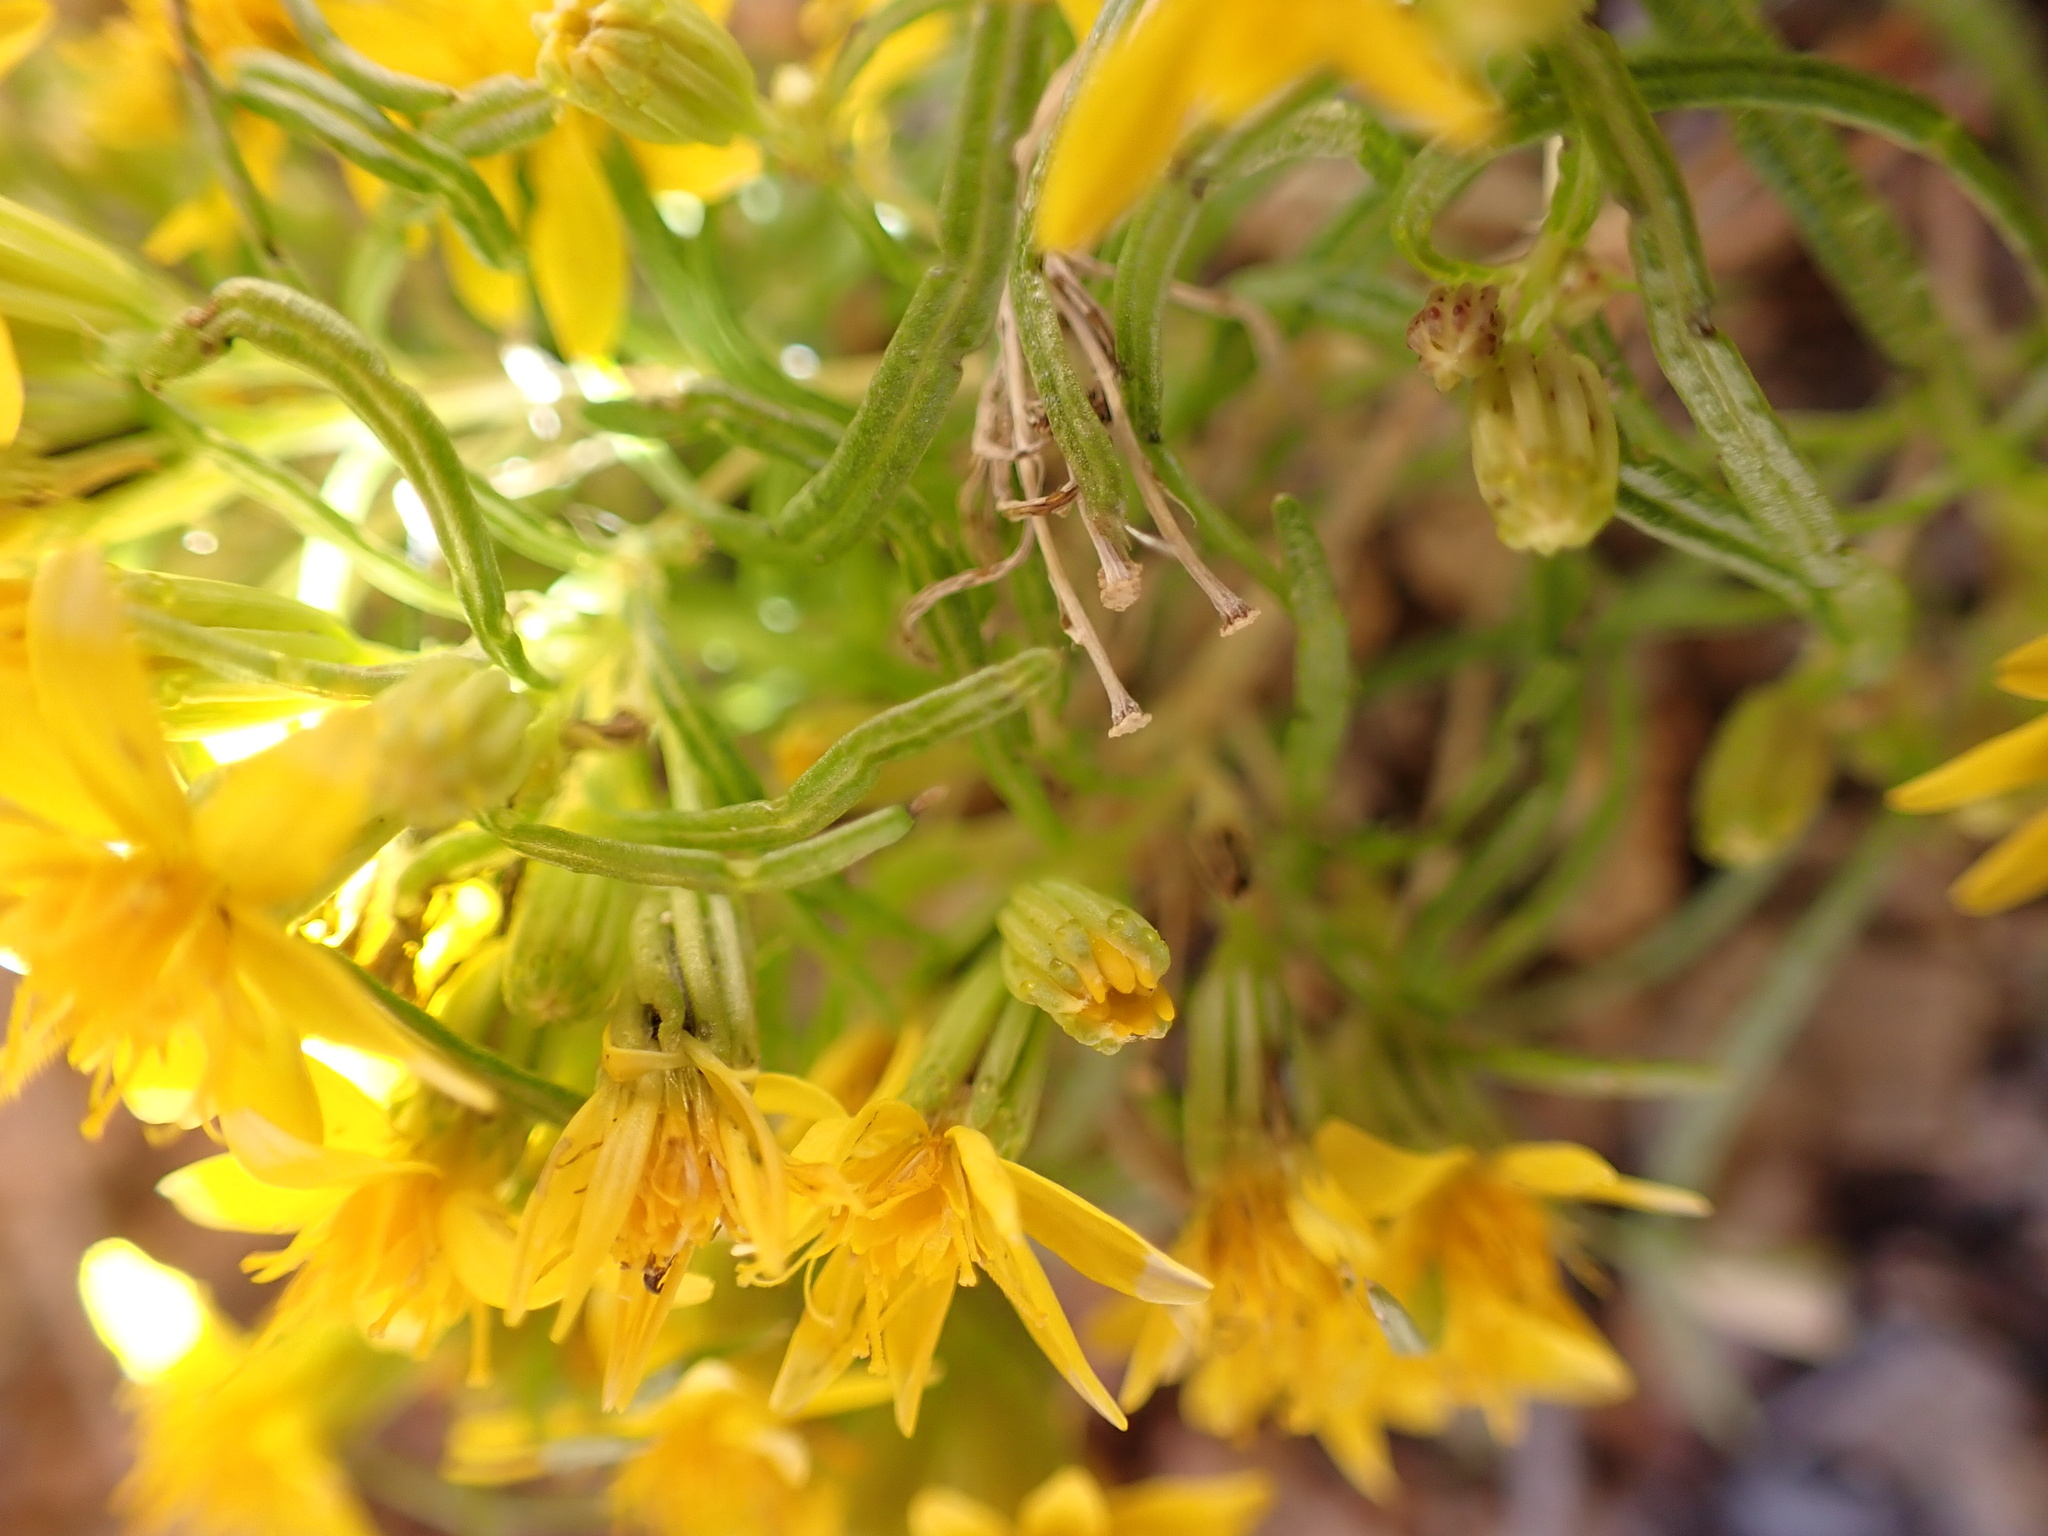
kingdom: Plantae
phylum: Tracheophyta
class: Magnoliopsida
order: Asterales
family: Asteraceae
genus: Pectis
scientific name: Pectis papposa
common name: Many-bristle chinchweed
